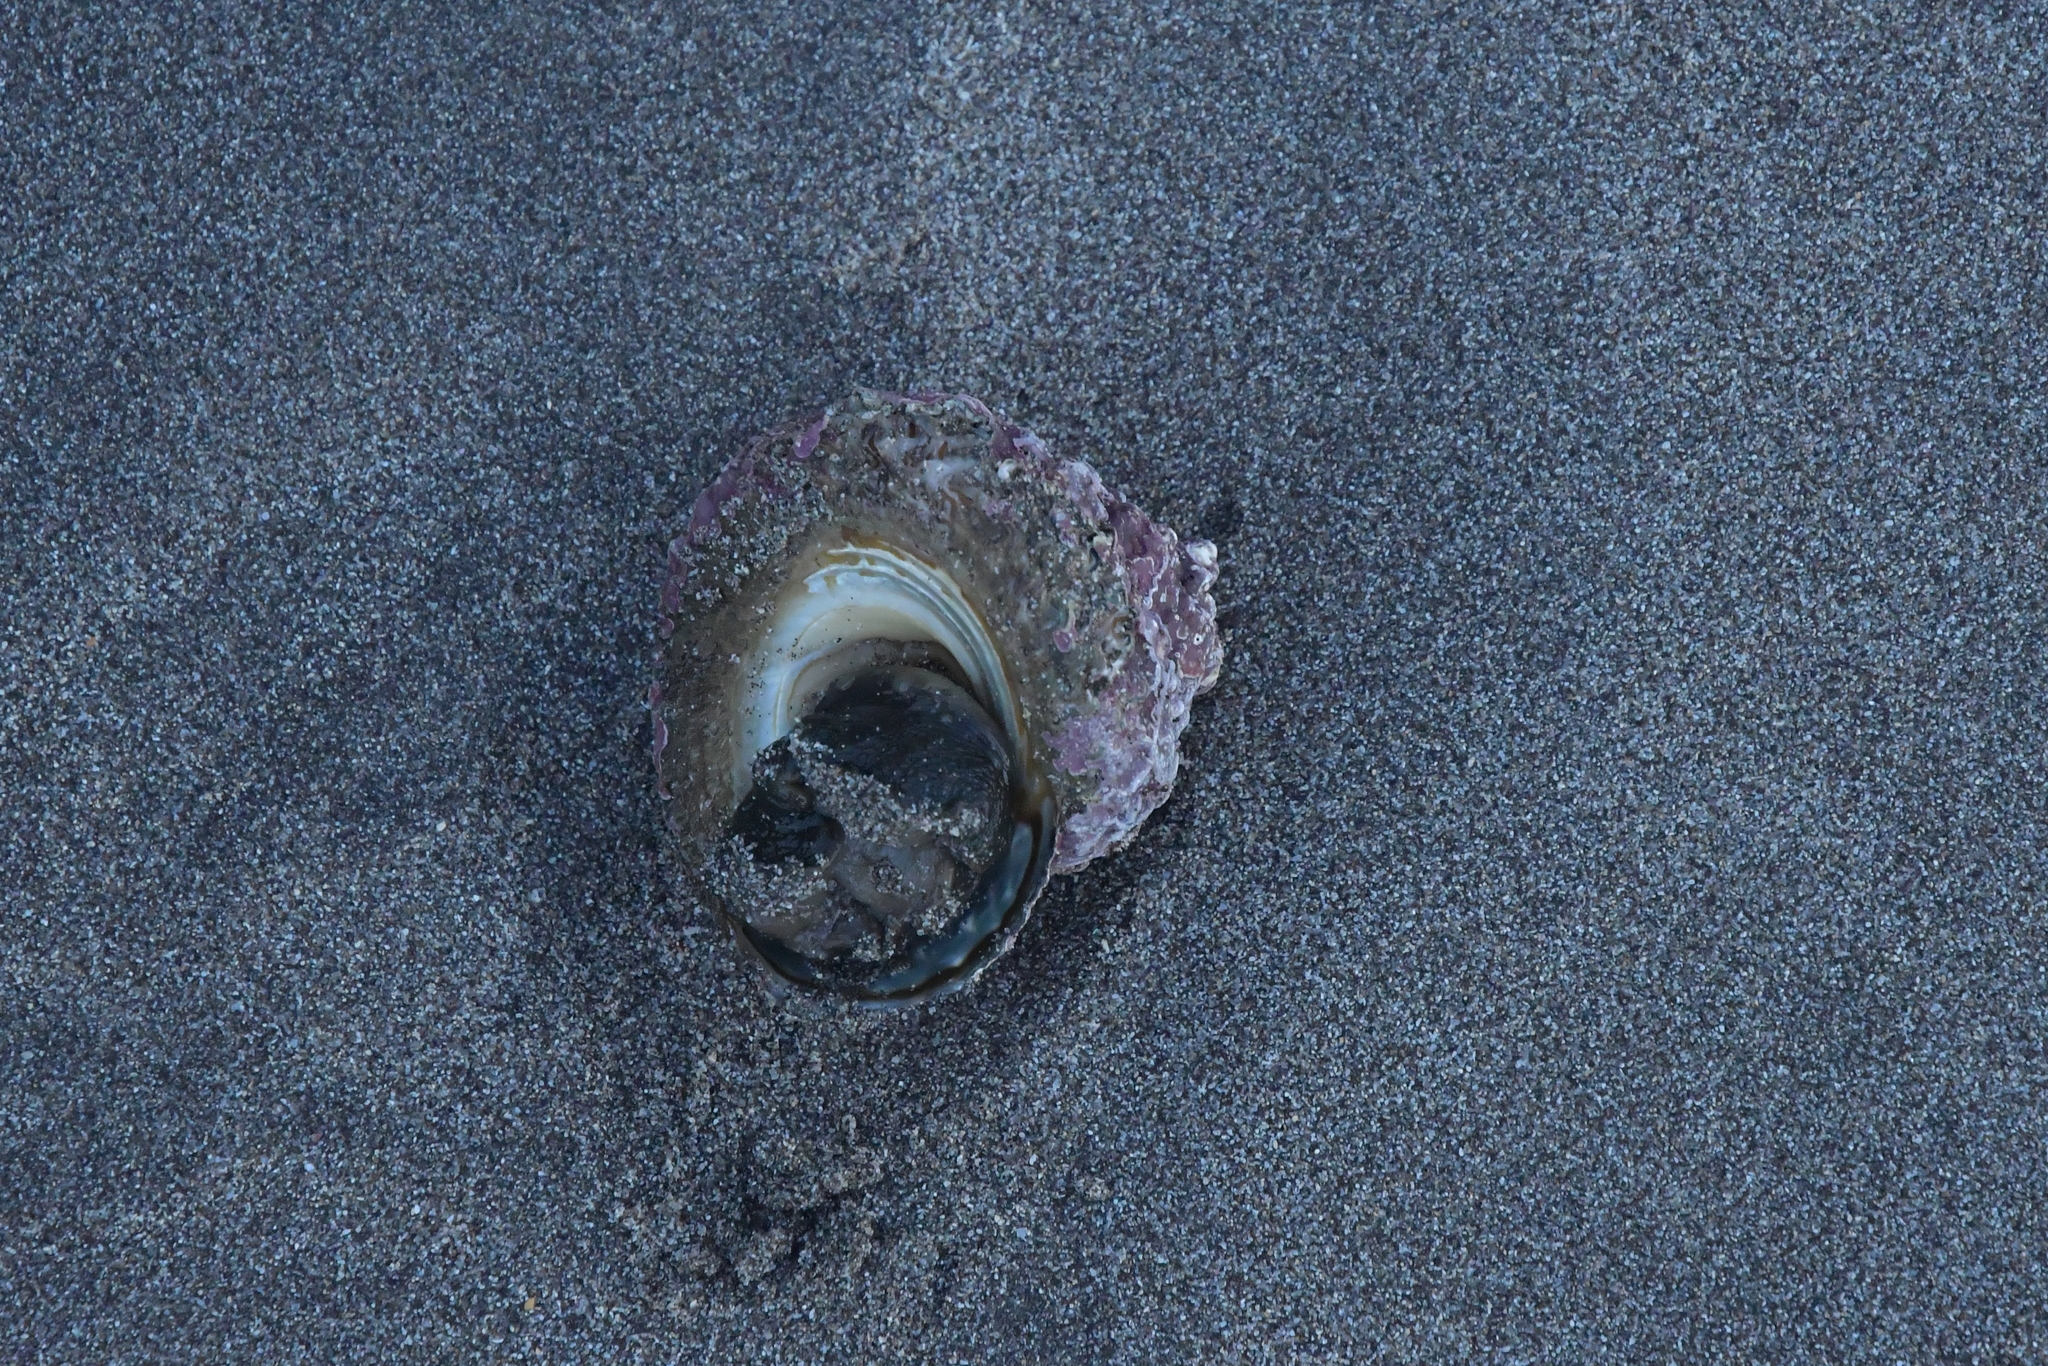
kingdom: Animalia
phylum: Mollusca
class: Gastropoda
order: Trochida
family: Turbinidae
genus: Cookia
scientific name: Cookia sulcata
